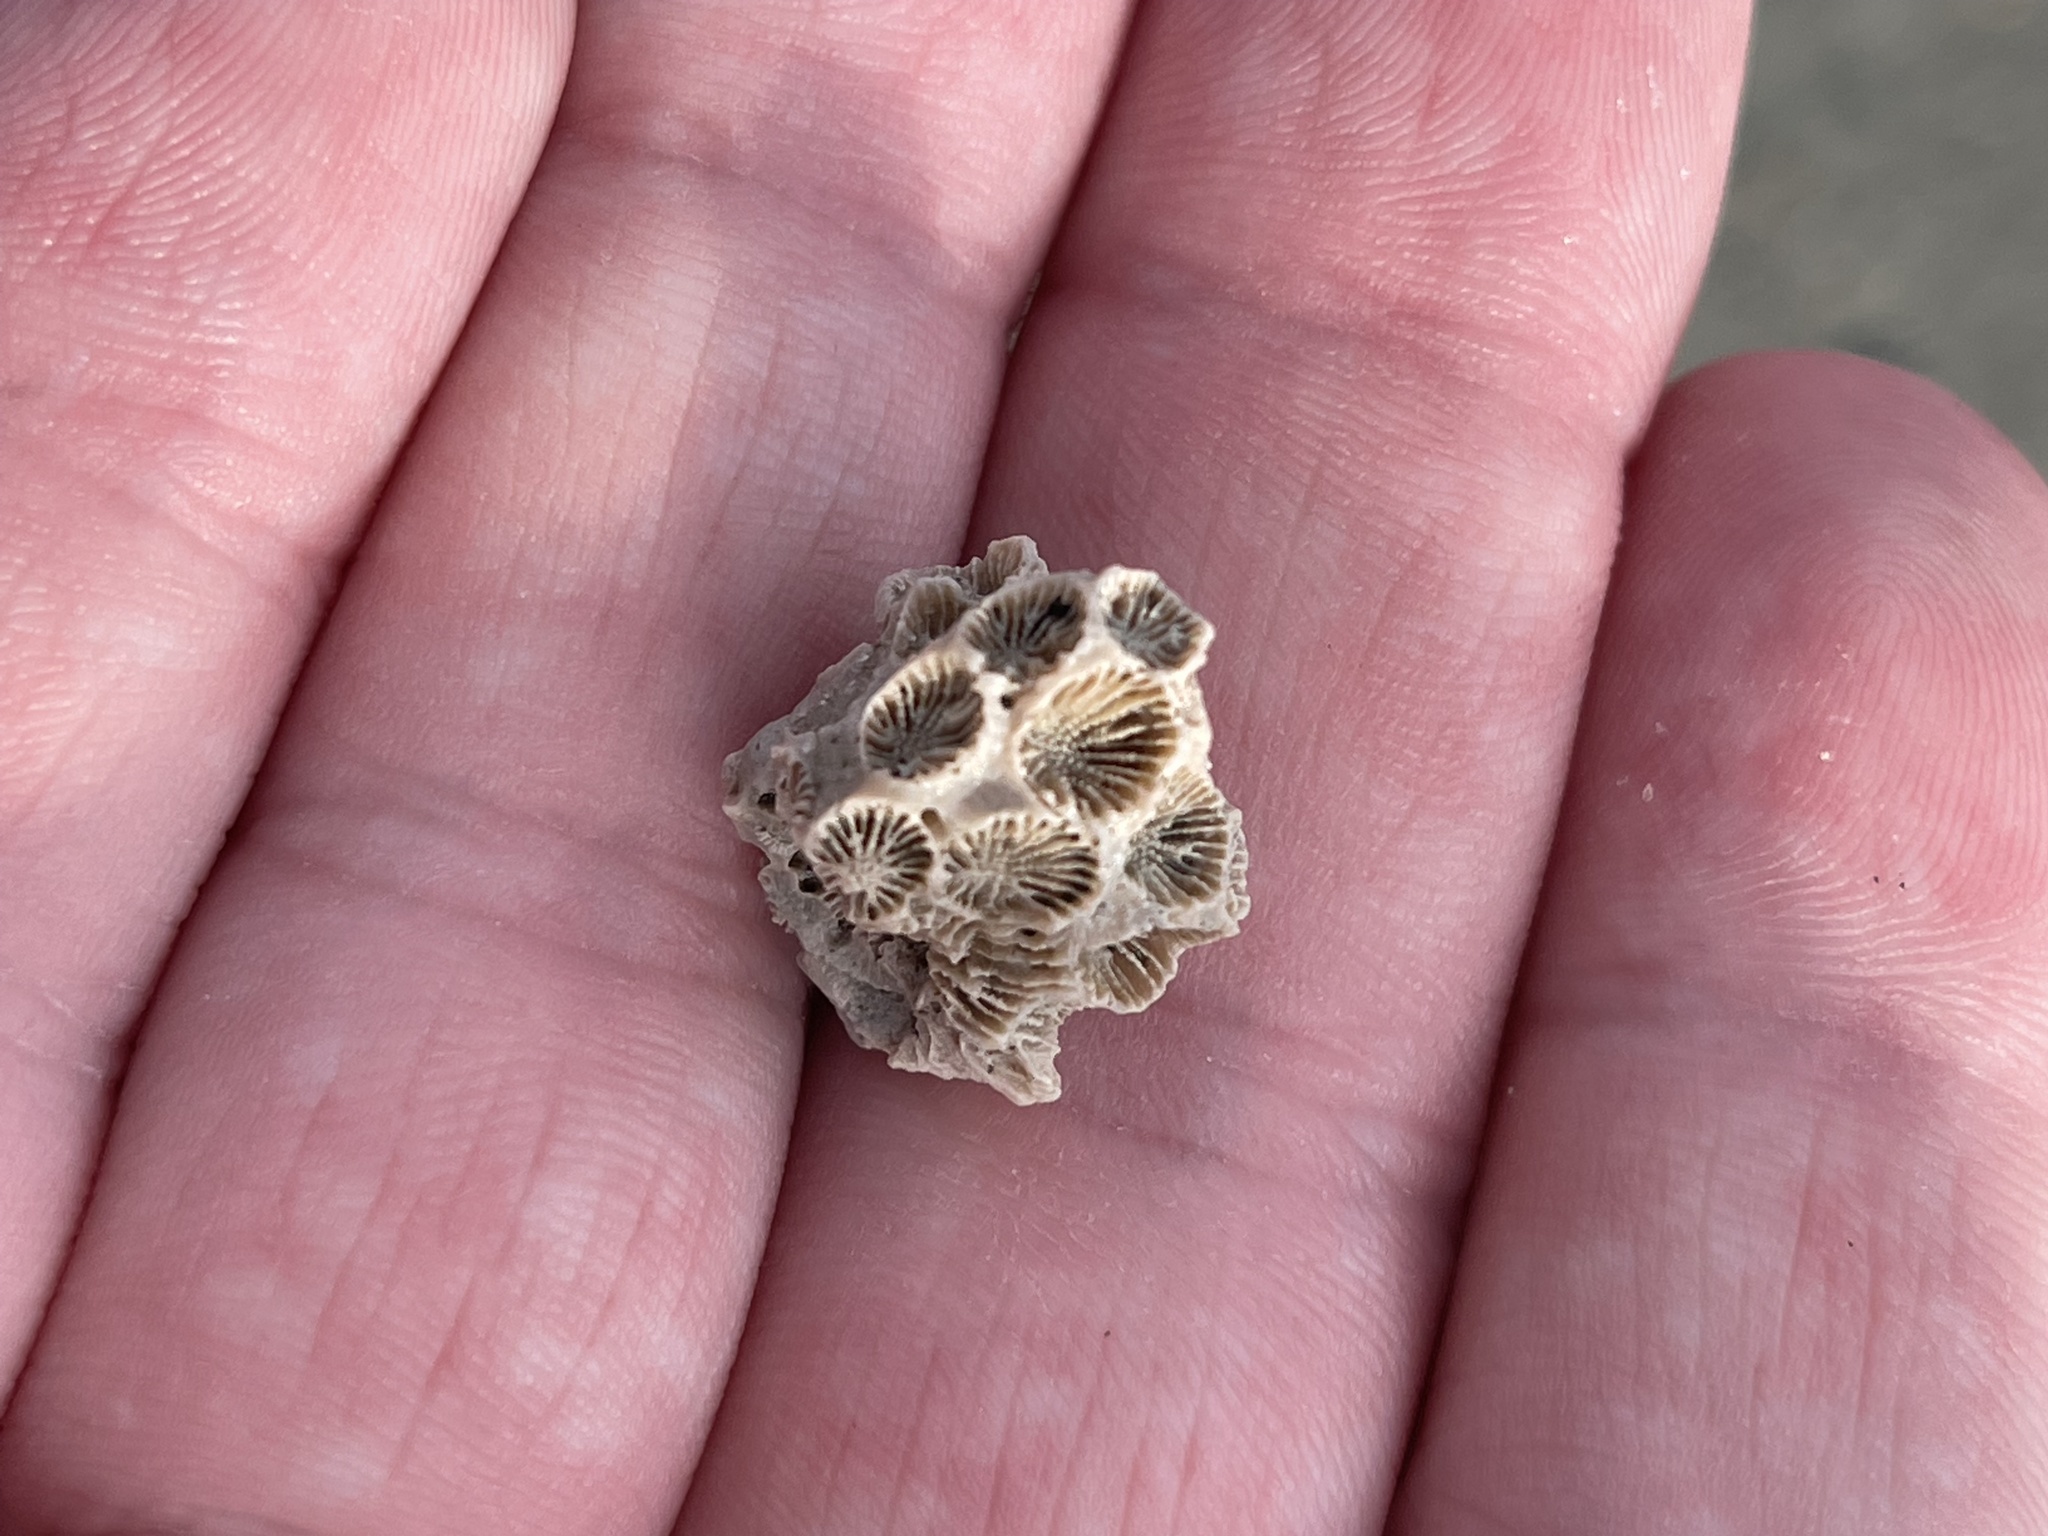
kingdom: Animalia
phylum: Cnidaria
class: Anthozoa
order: Scleractinia
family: Astrangiidae
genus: Astrangia
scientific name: Astrangia poculata
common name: Northern star coral
